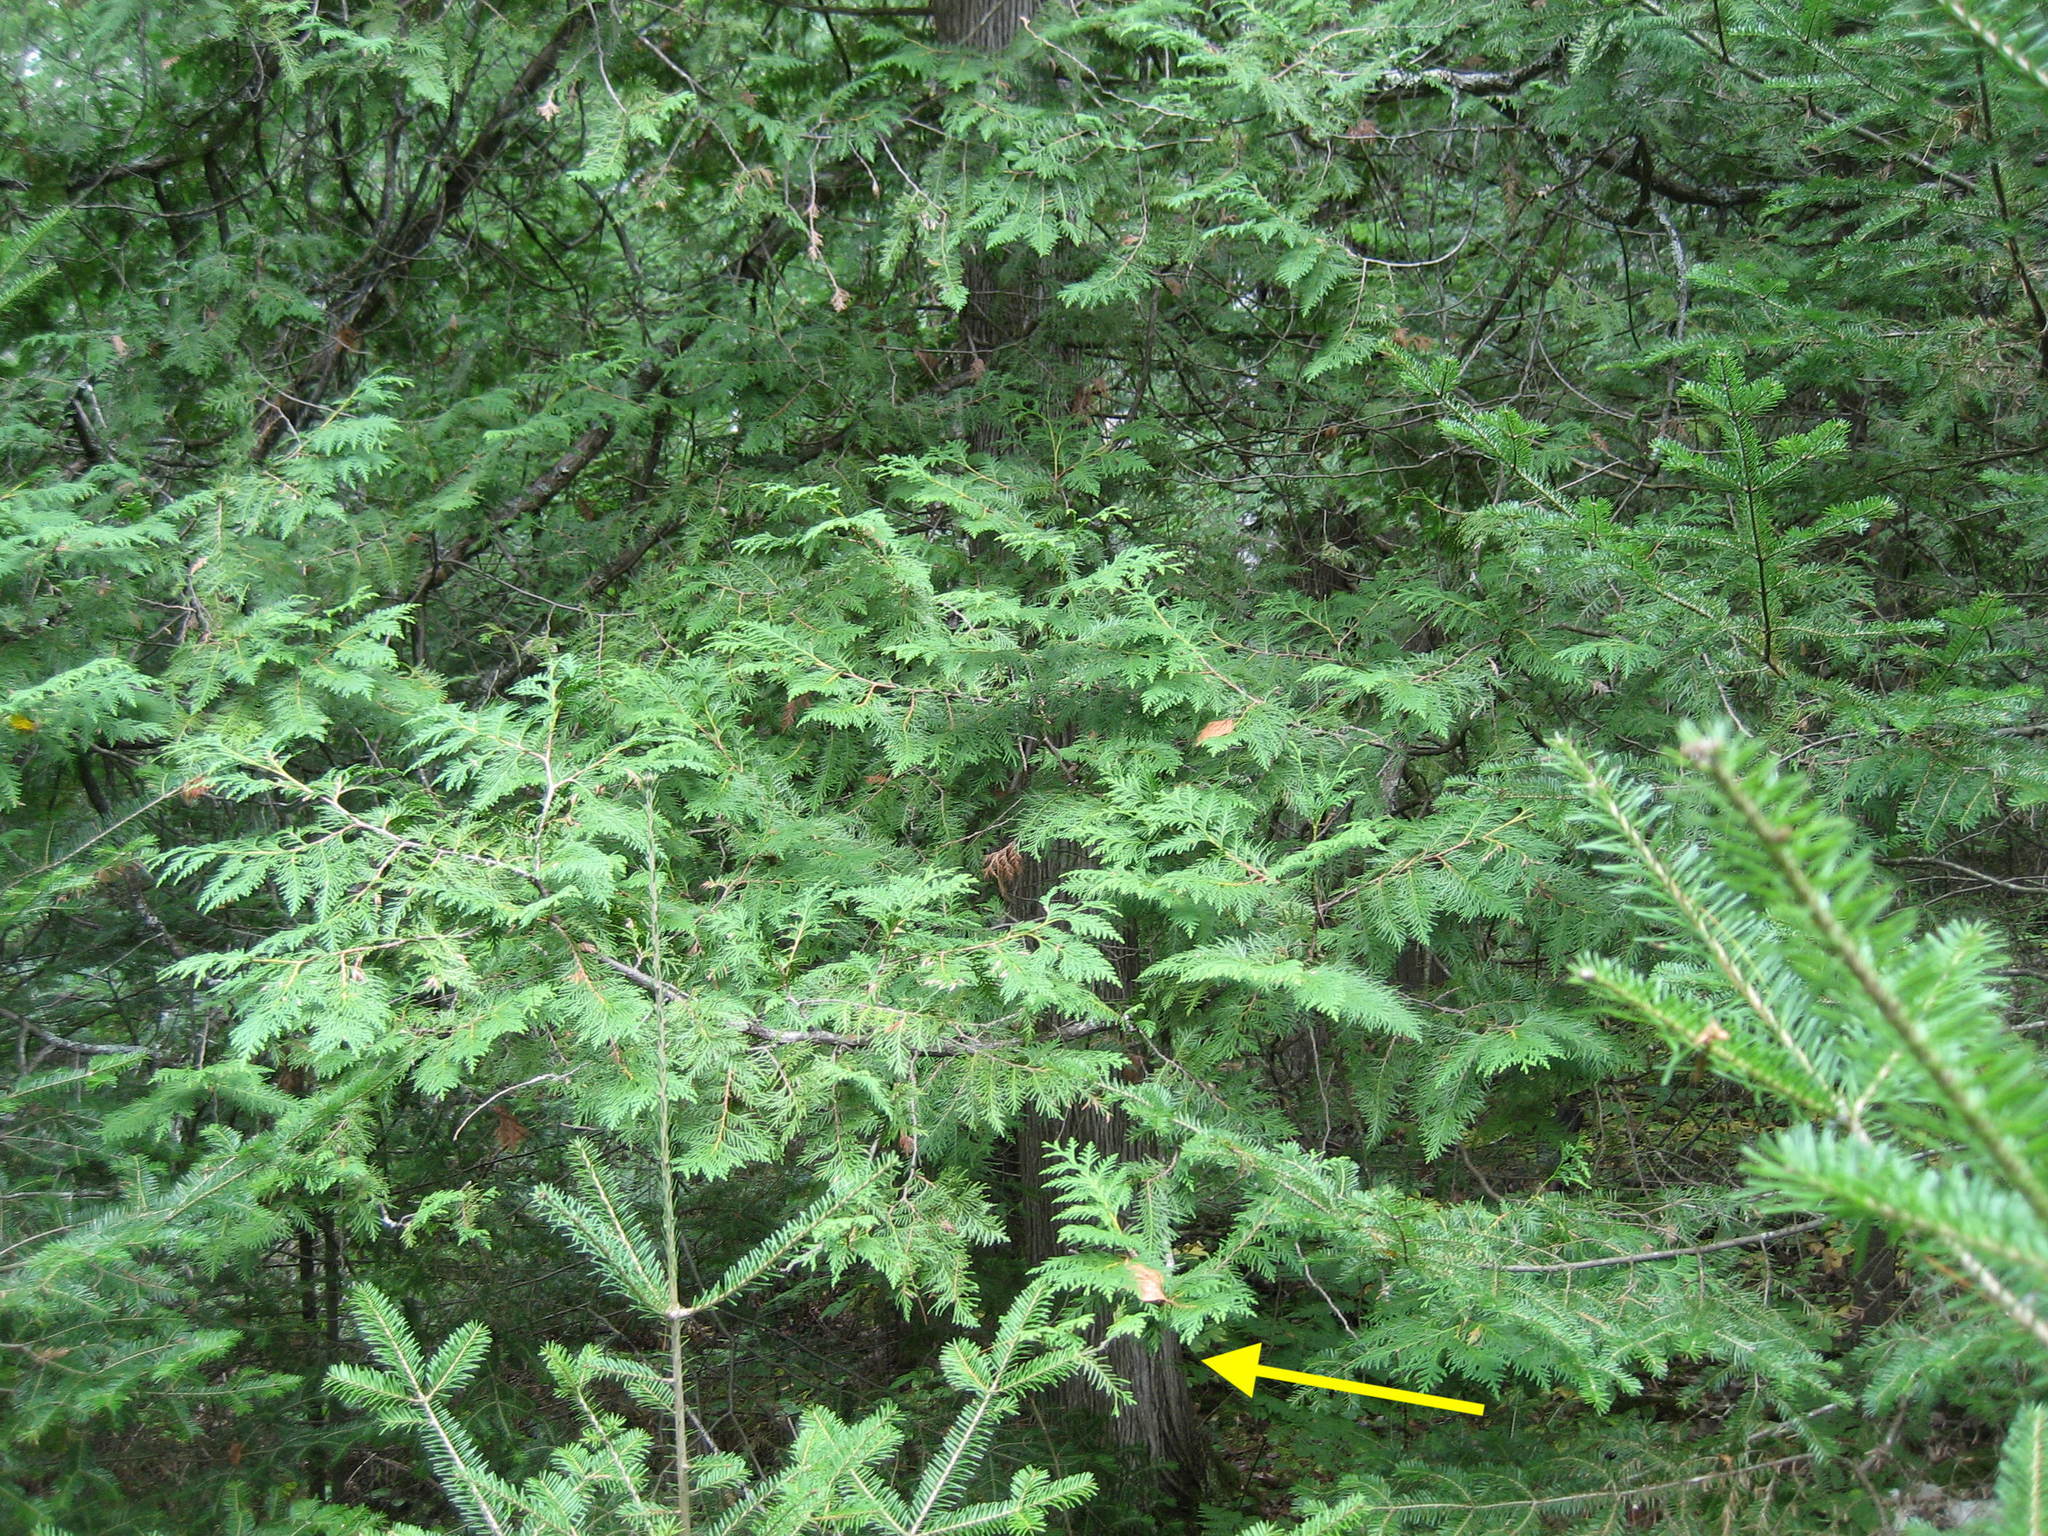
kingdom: Plantae
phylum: Tracheophyta
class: Pinopsida
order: Pinales
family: Cupressaceae
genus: Thuja
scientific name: Thuja occidentalis
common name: Northern white-cedar
